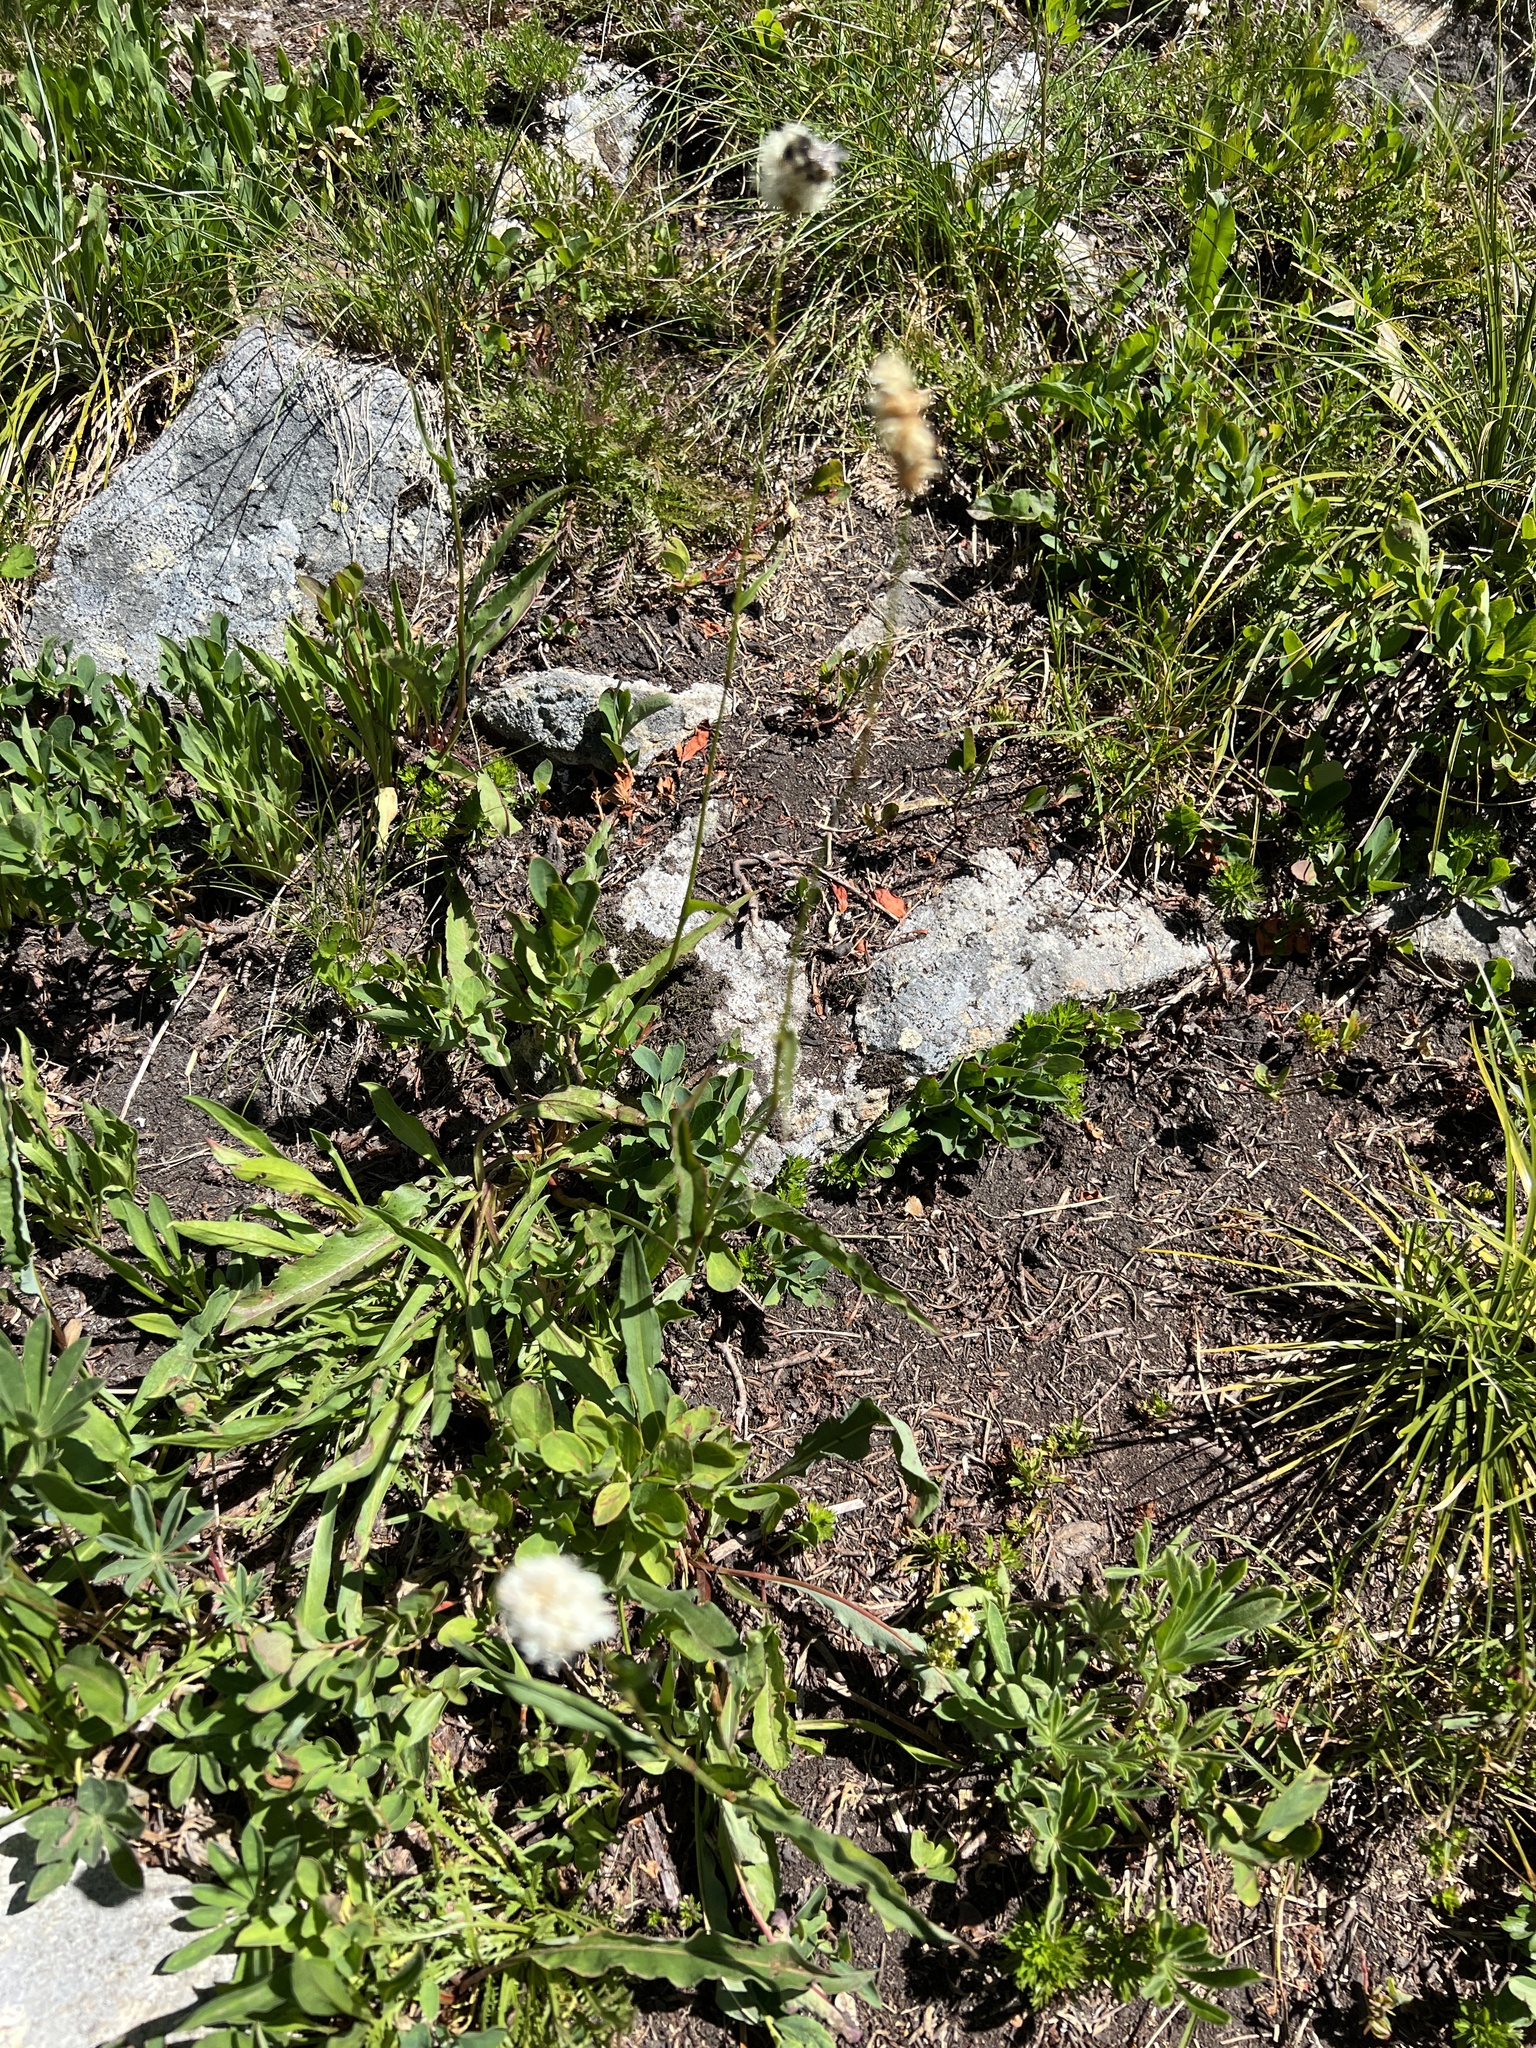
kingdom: Plantae
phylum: Tracheophyta
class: Magnoliopsida
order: Caryophyllales
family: Polygonaceae
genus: Bistorta
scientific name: Bistorta bistortoides
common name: American bistort
